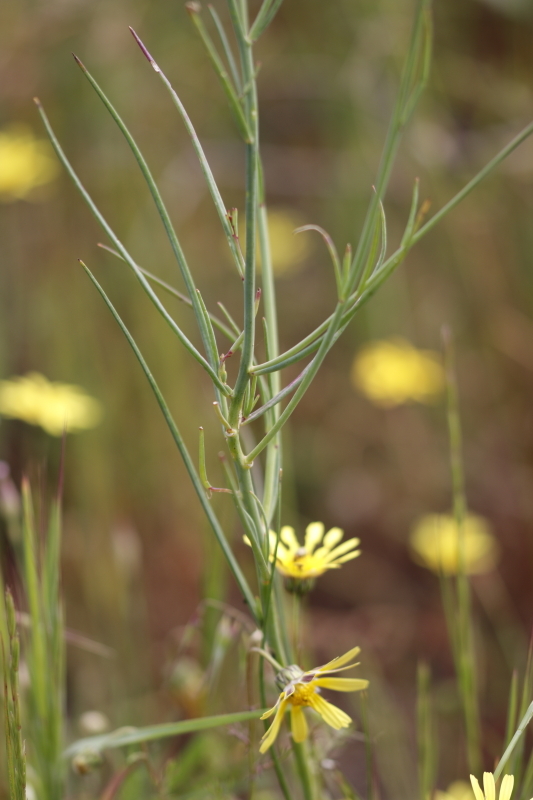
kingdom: Plantae
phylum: Tracheophyta
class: Magnoliopsida
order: Brassicales
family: Brassicaceae
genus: Heliophila
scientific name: Heliophila linoides
